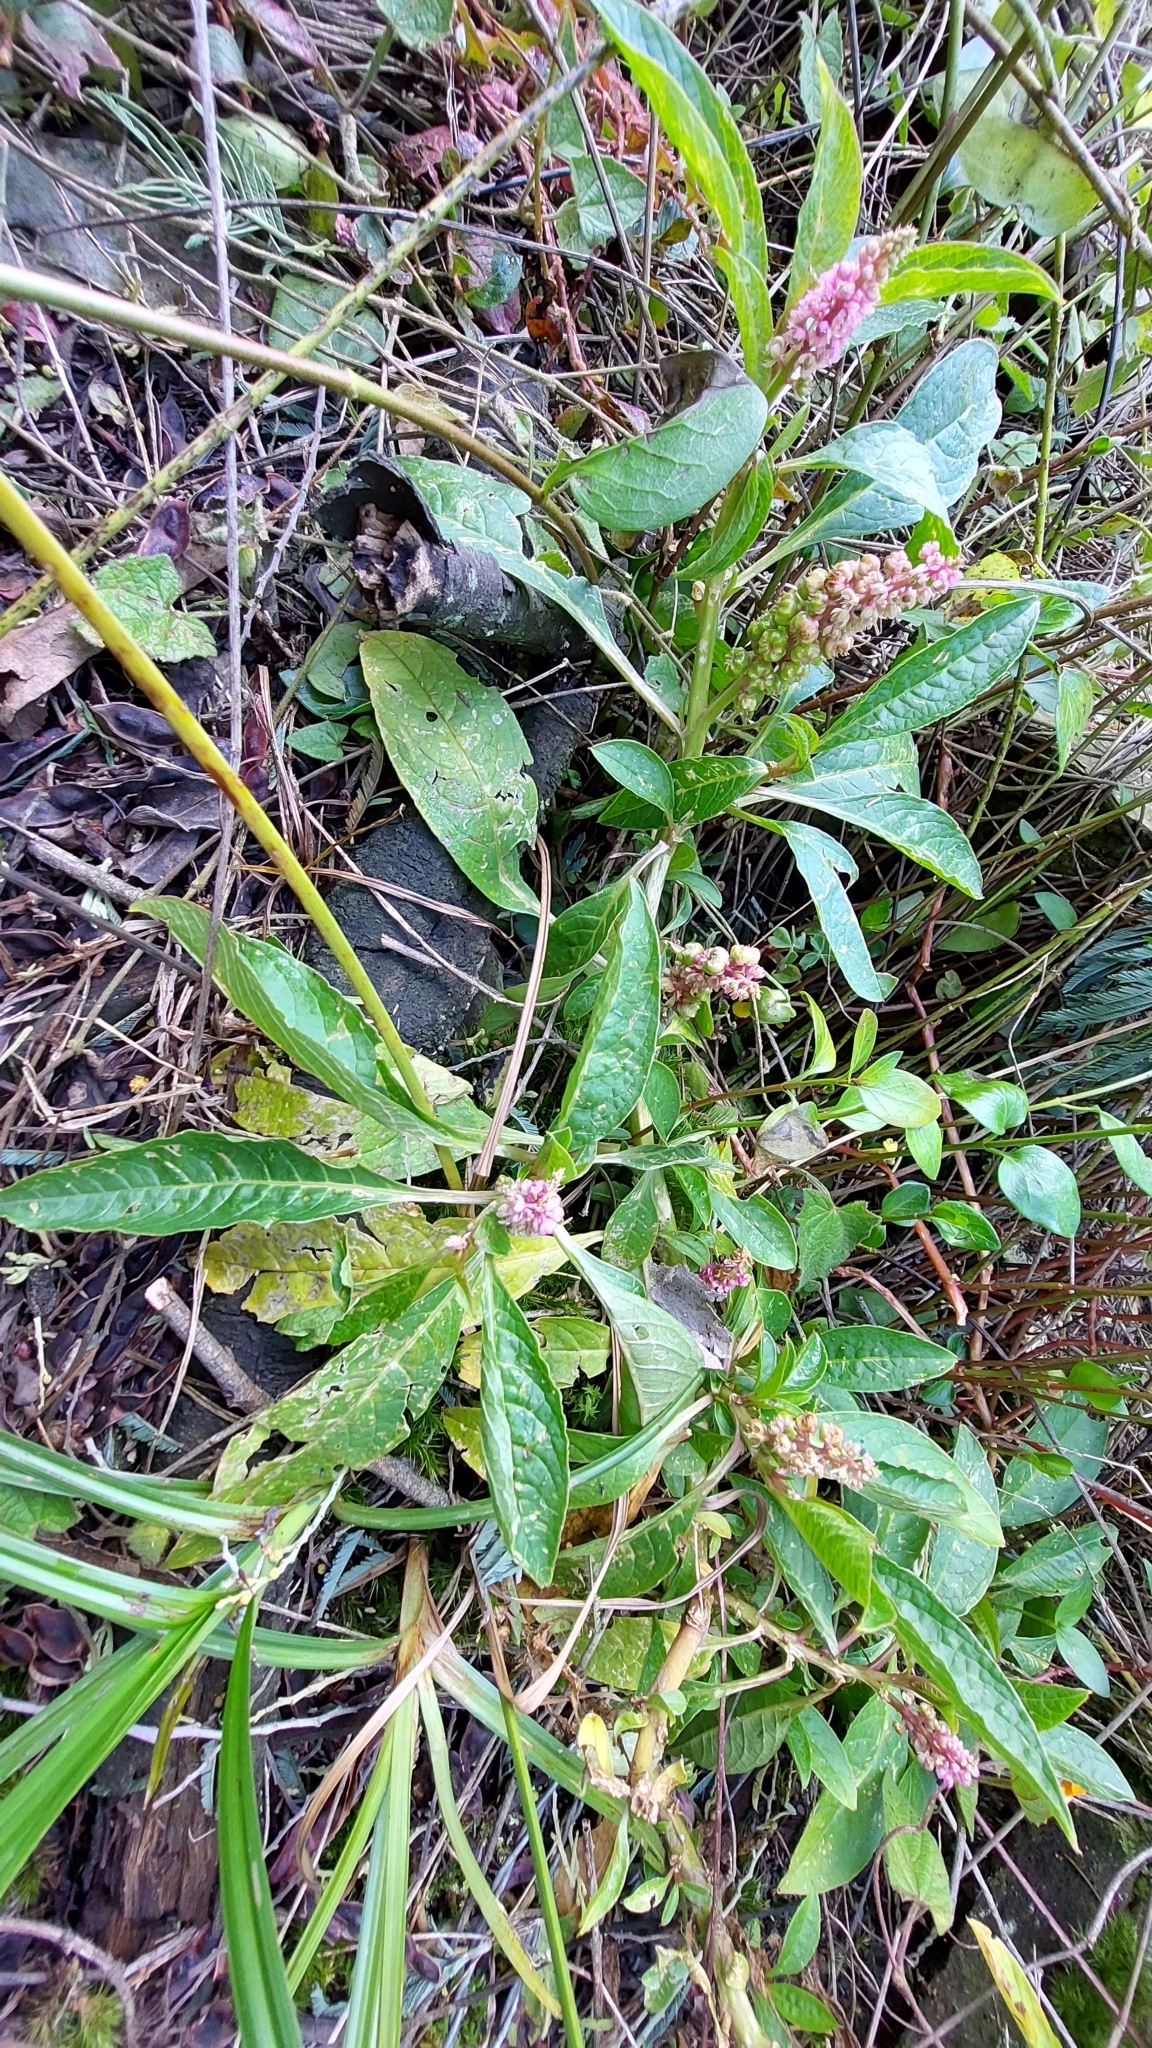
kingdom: Plantae
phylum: Tracheophyta
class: Magnoliopsida
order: Caryophyllales
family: Phytolaccaceae
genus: Phytolacca
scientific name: Phytolacca bogotensis
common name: Southern pokeweed
